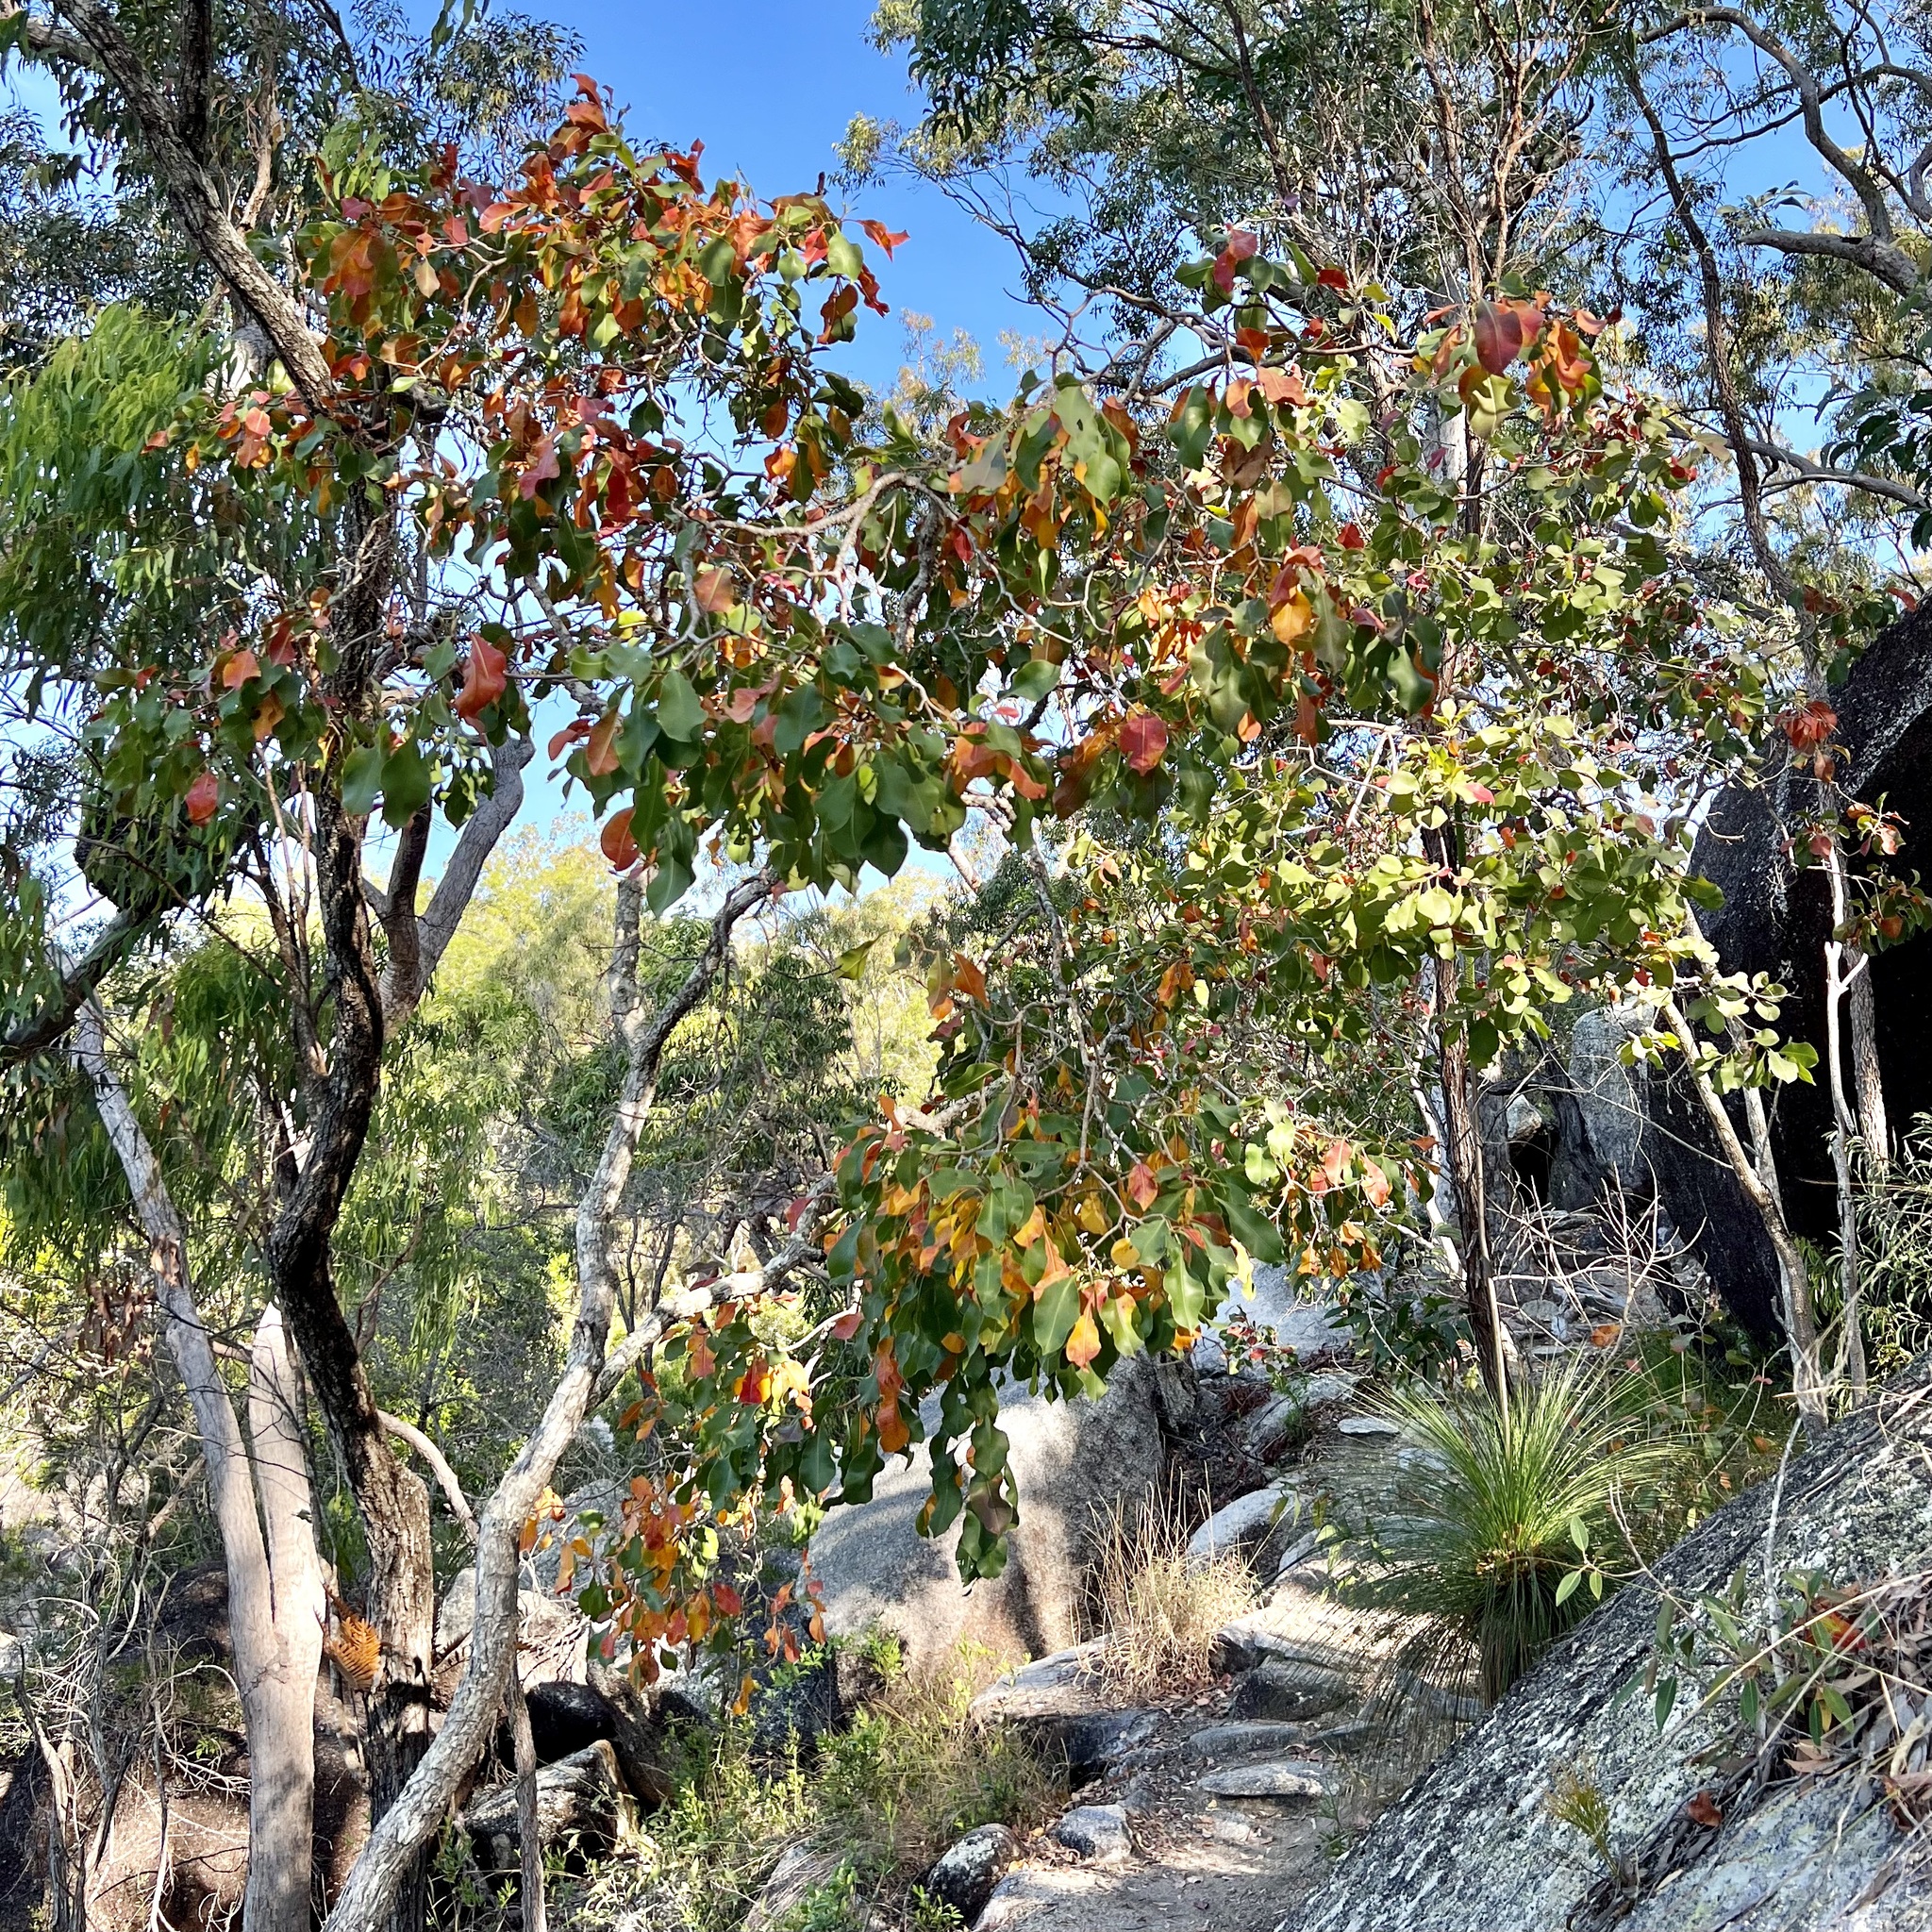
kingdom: Plantae
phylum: Tracheophyta
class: Magnoliopsida
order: Ericales
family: Lecythidaceae
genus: Planchonia
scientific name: Planchonia careya
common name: Cockatoo-apple
